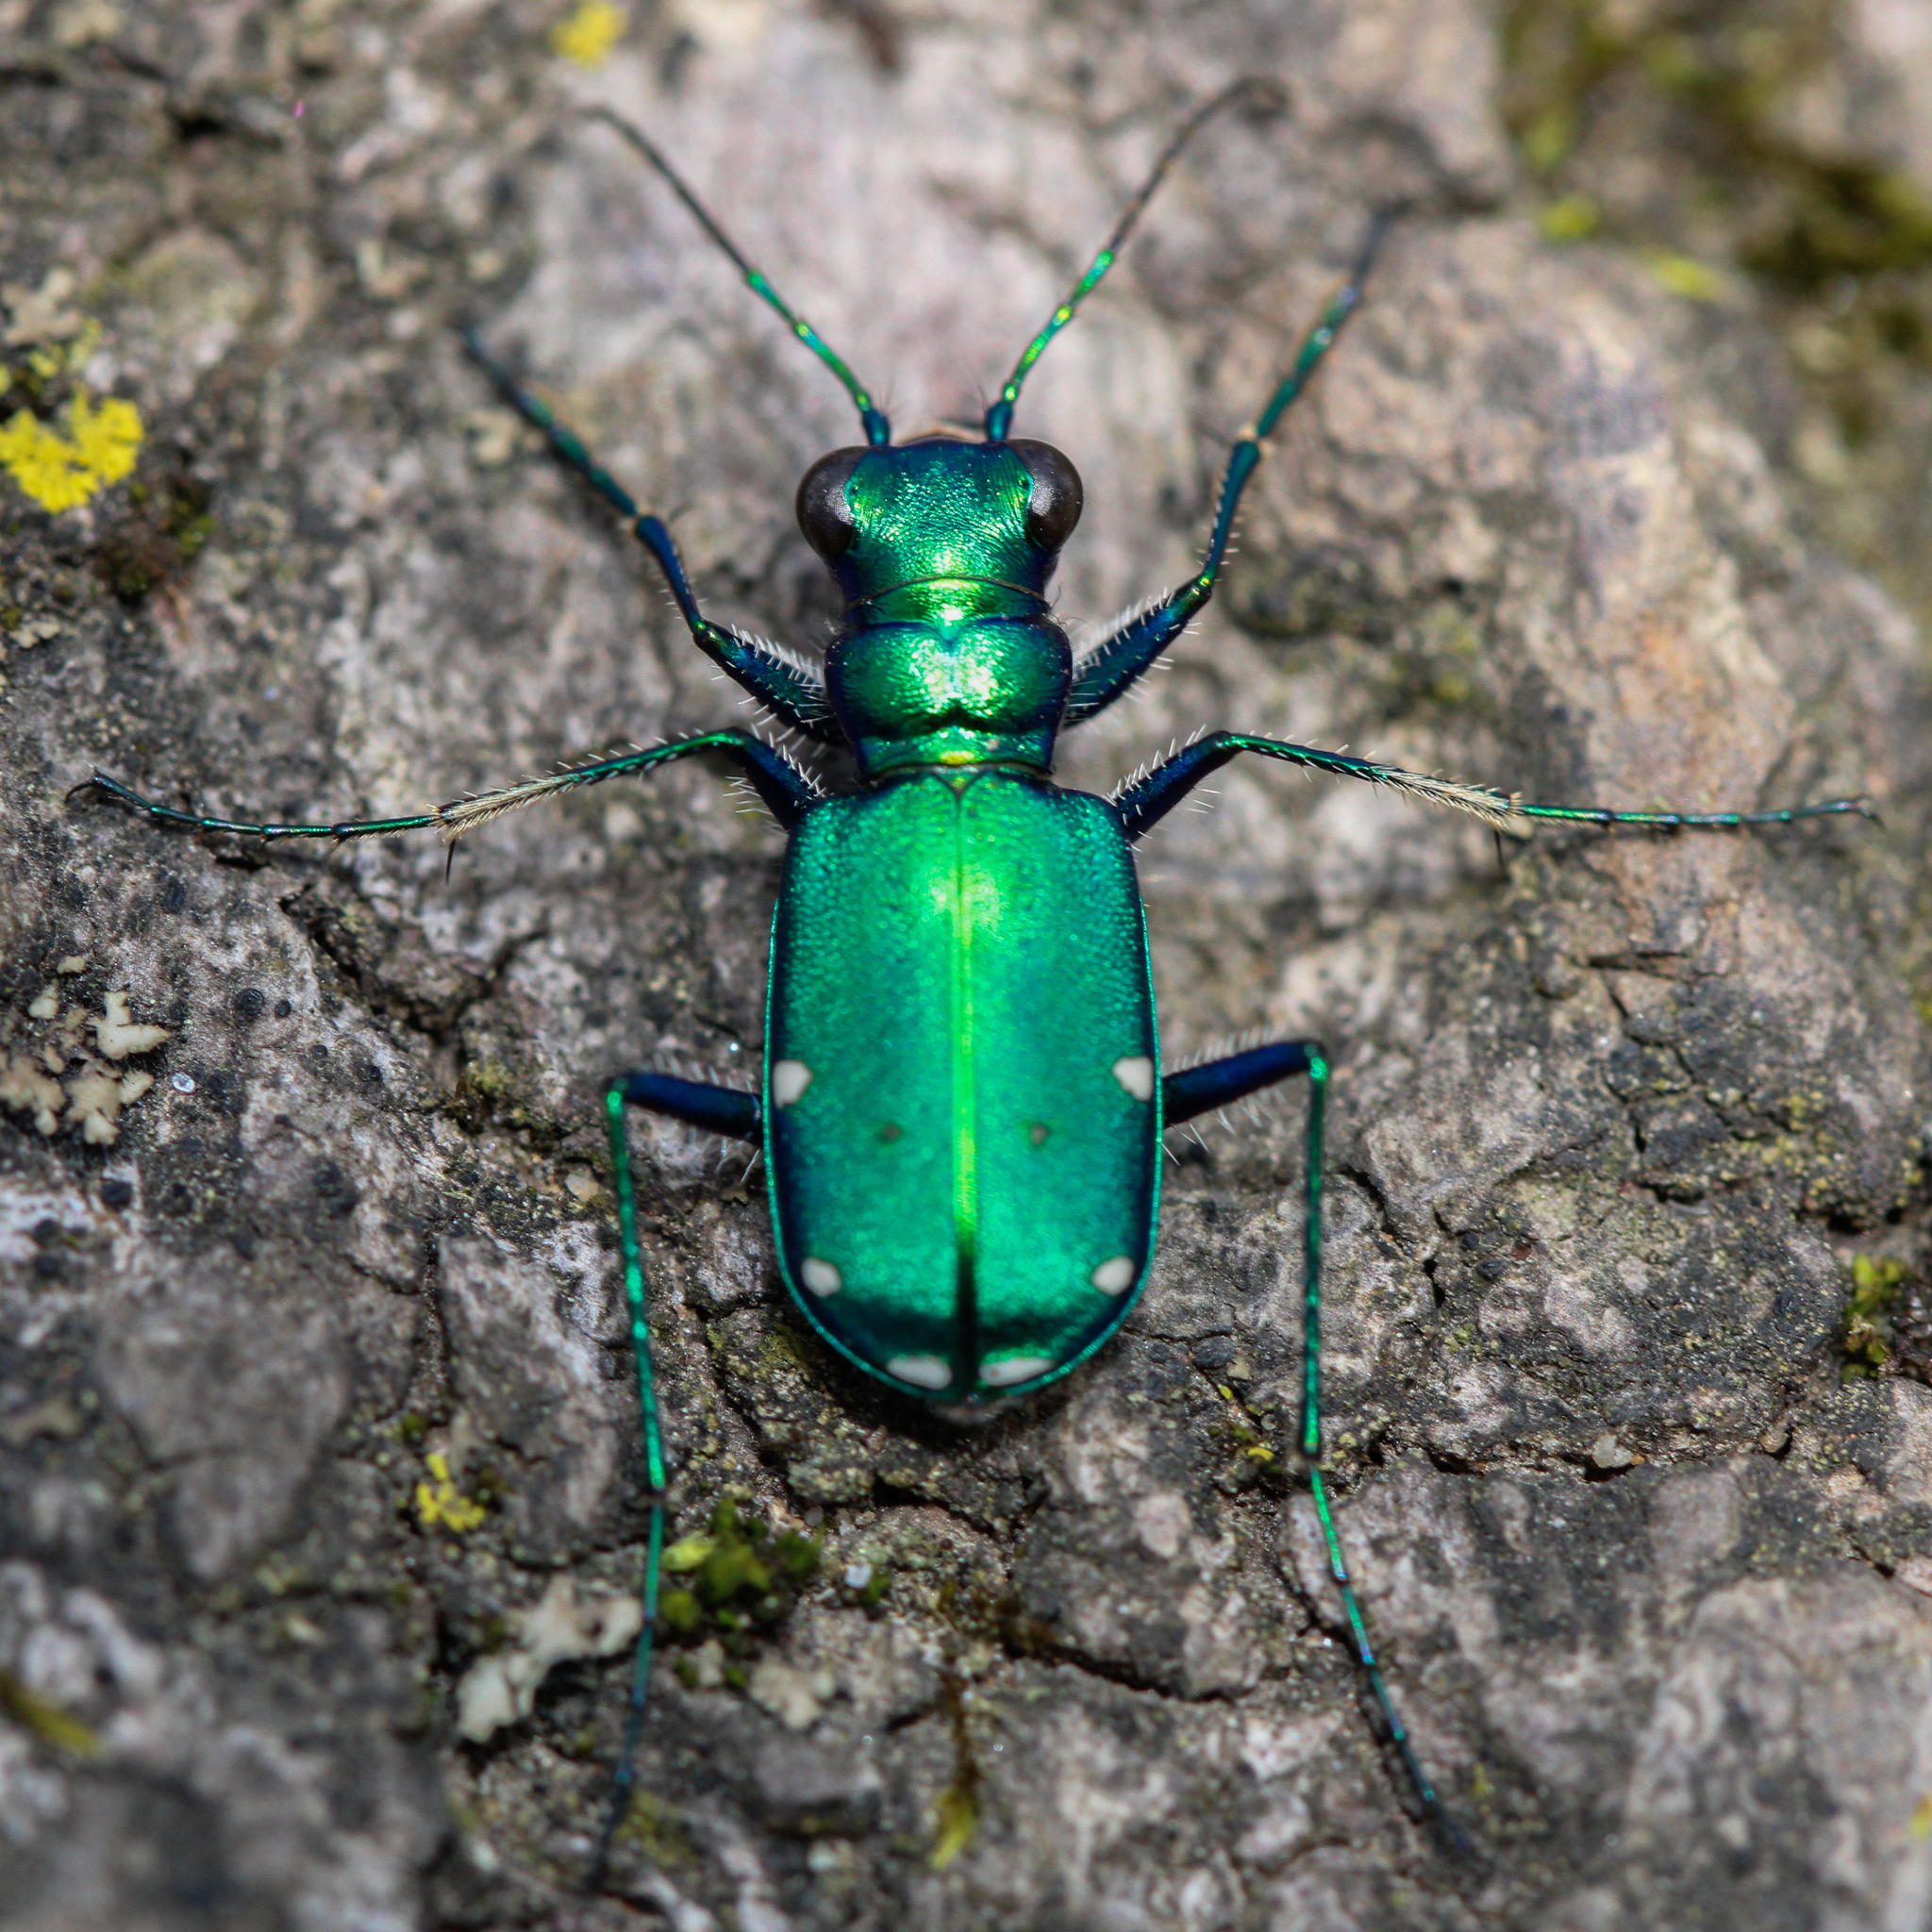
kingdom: Animalia
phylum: Arthropoda
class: Insecta
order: Coleoptera
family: Carabidae
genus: Cicindela
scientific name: Cicindela sexguttata
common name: Six-spotted tiger beetle
